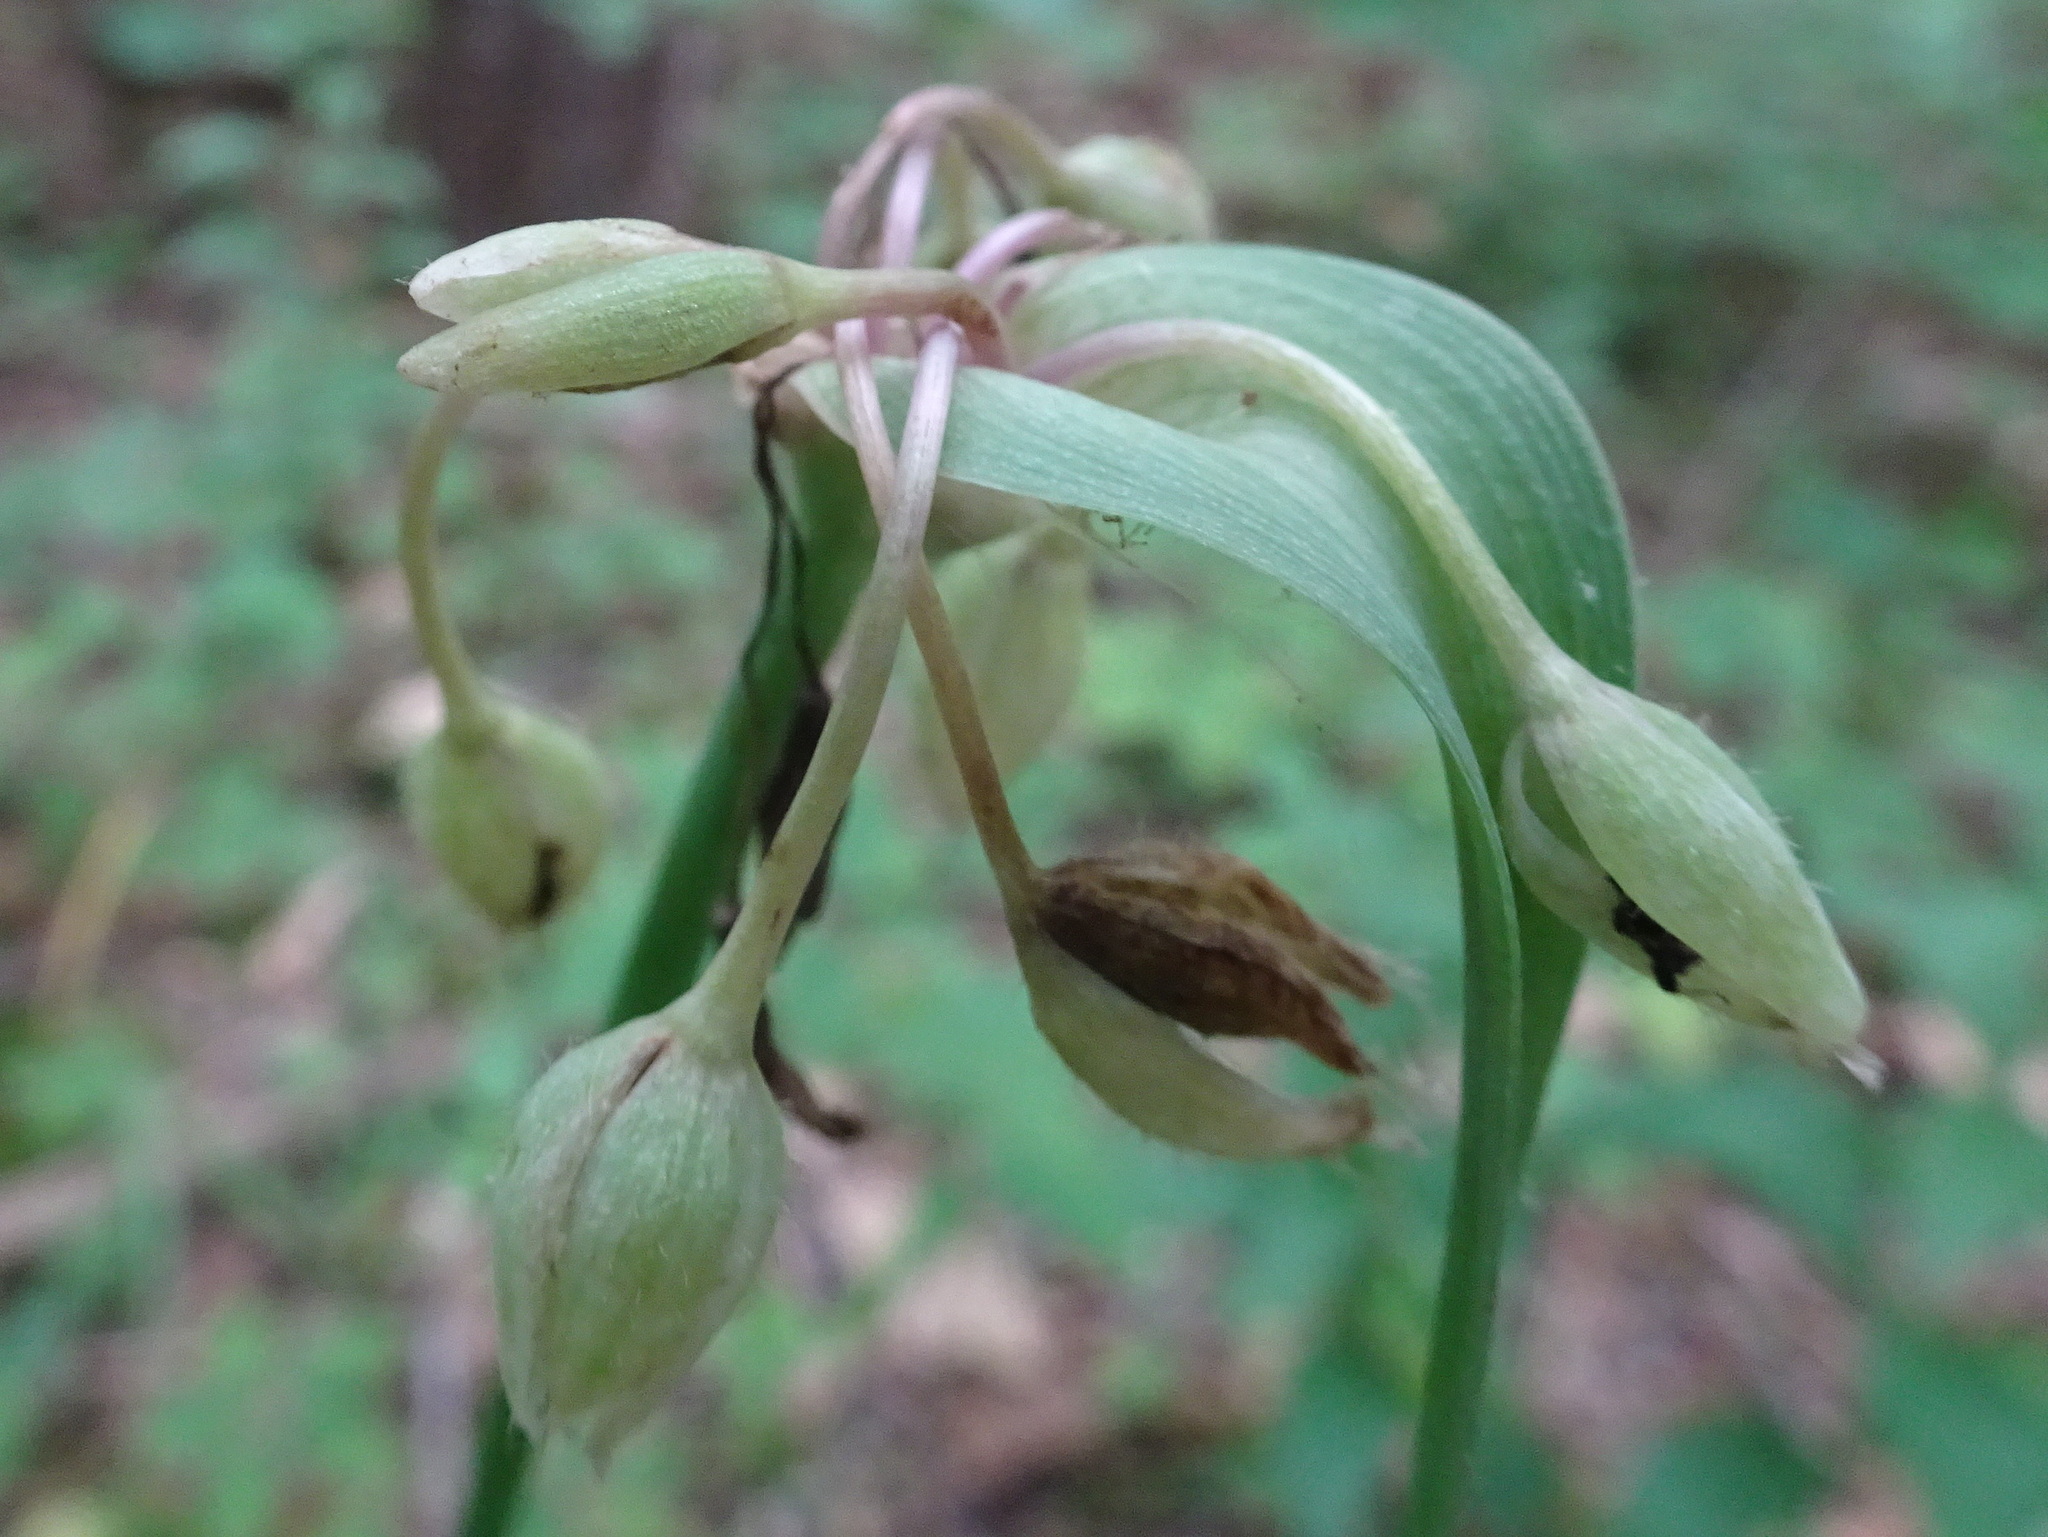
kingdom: Plantae
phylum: Tracheophyta
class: Liliopsida
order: Commelinales
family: Commelinaceae
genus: Tradescantia
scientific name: Tradescantia ohiensis
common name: Ohio spiderwort
